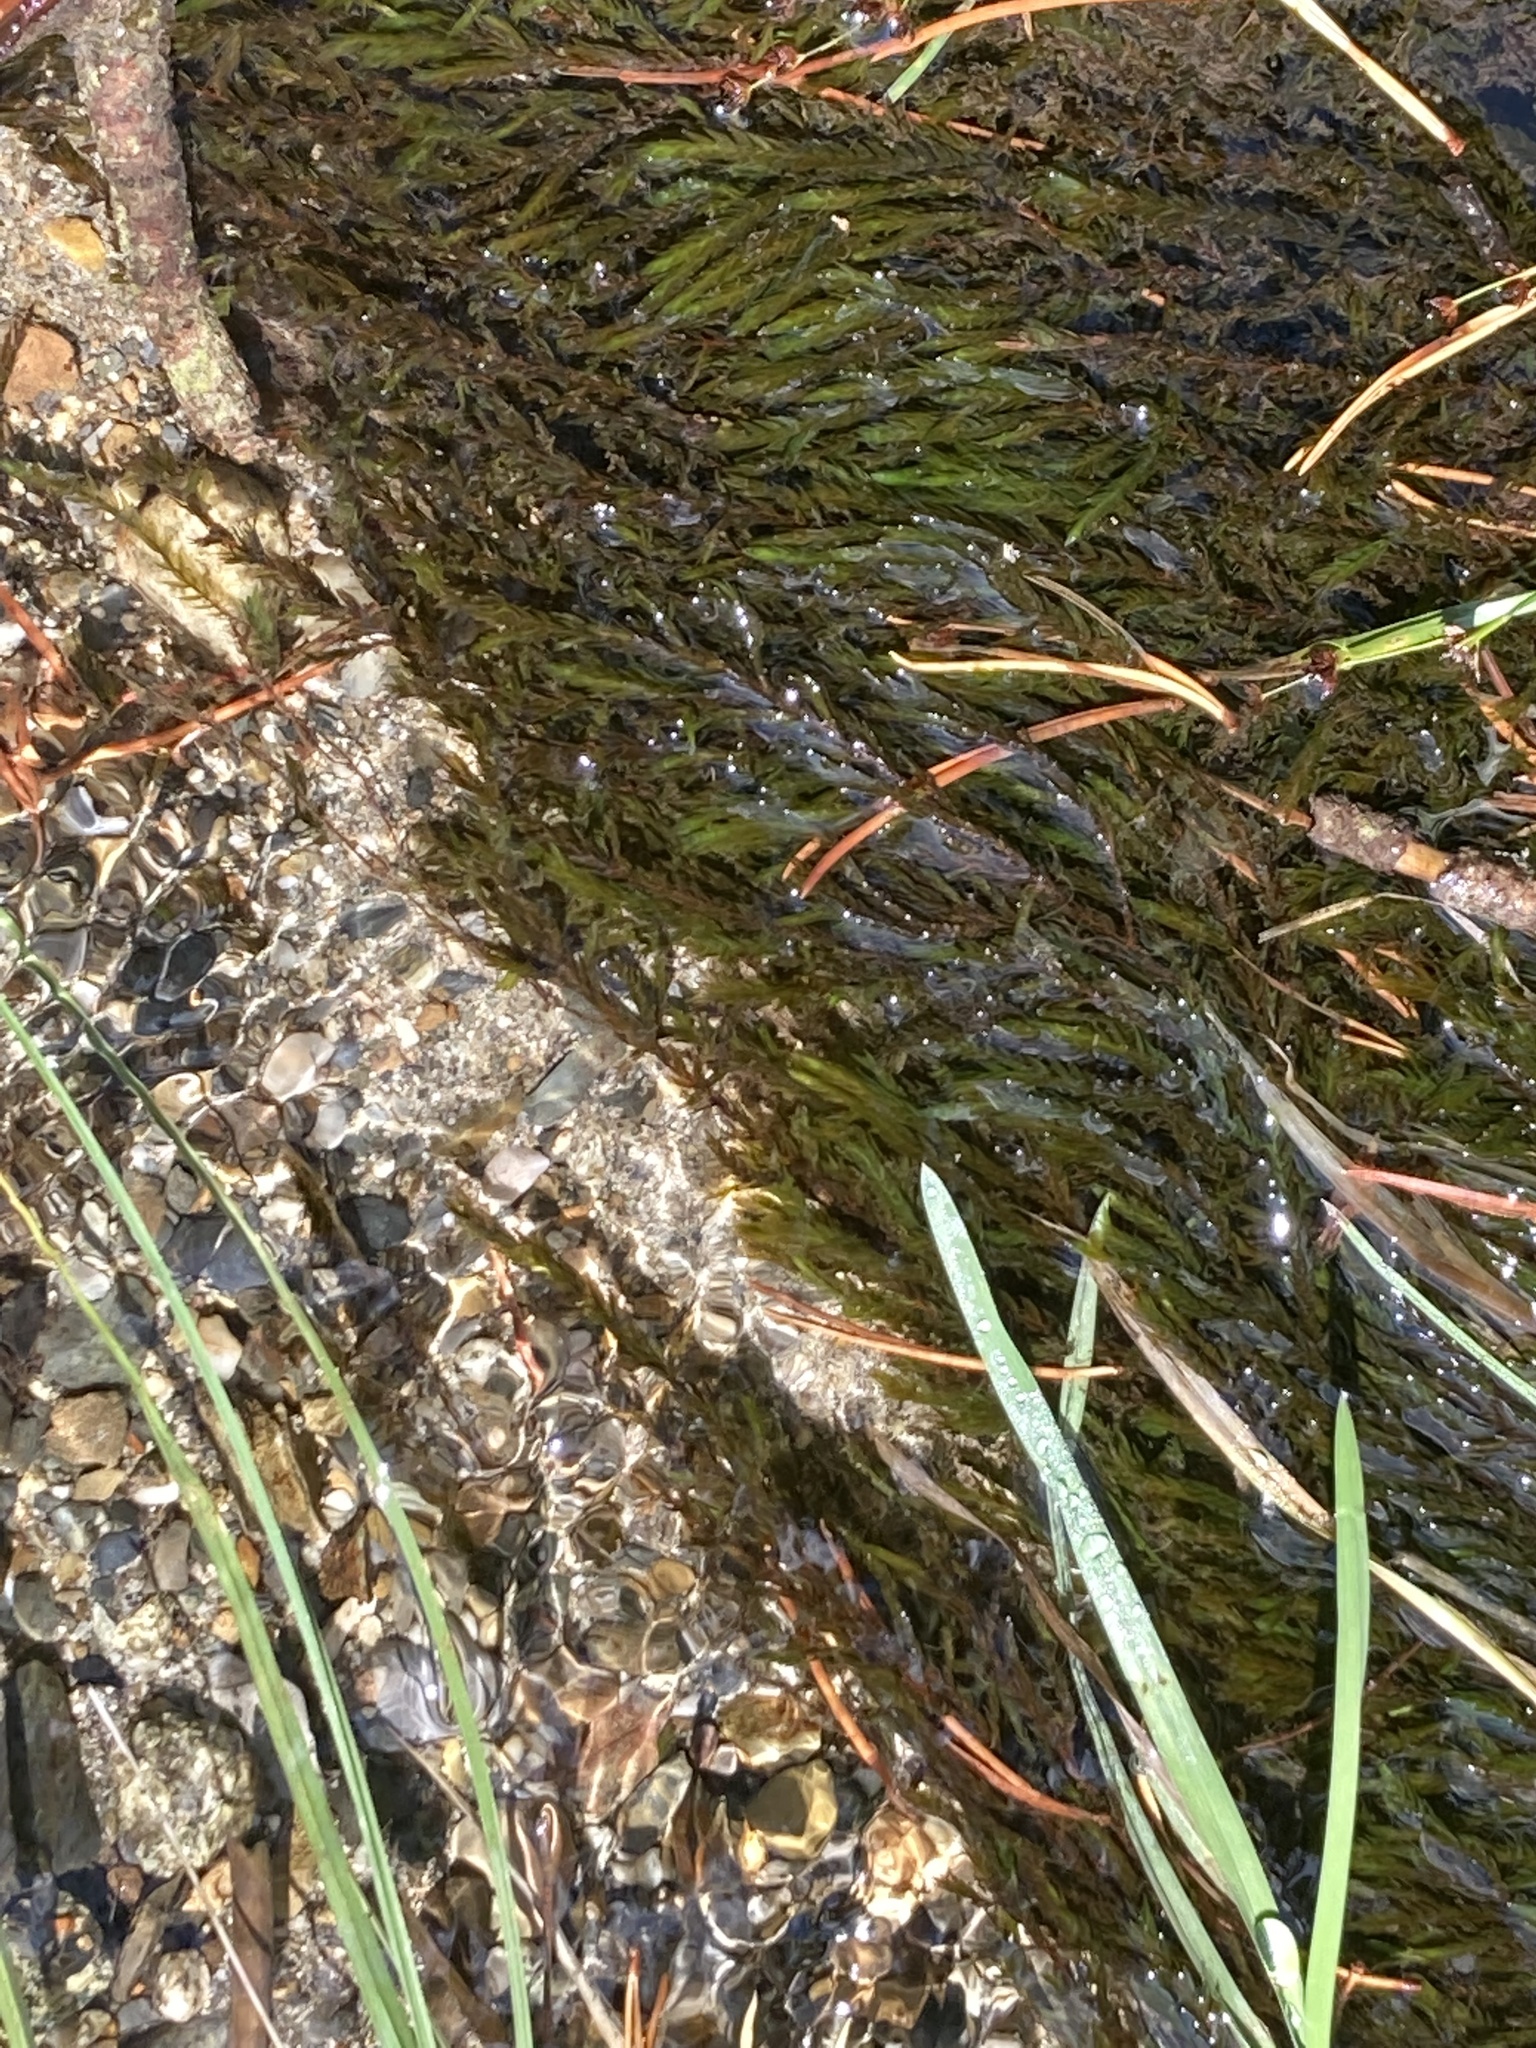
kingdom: Plantae
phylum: Bryophyta
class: Bryopsida
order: Hypnales
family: Fontinalaceae
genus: Fontinalis
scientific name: Fontinalis antipyretica
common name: Greater water-moss
